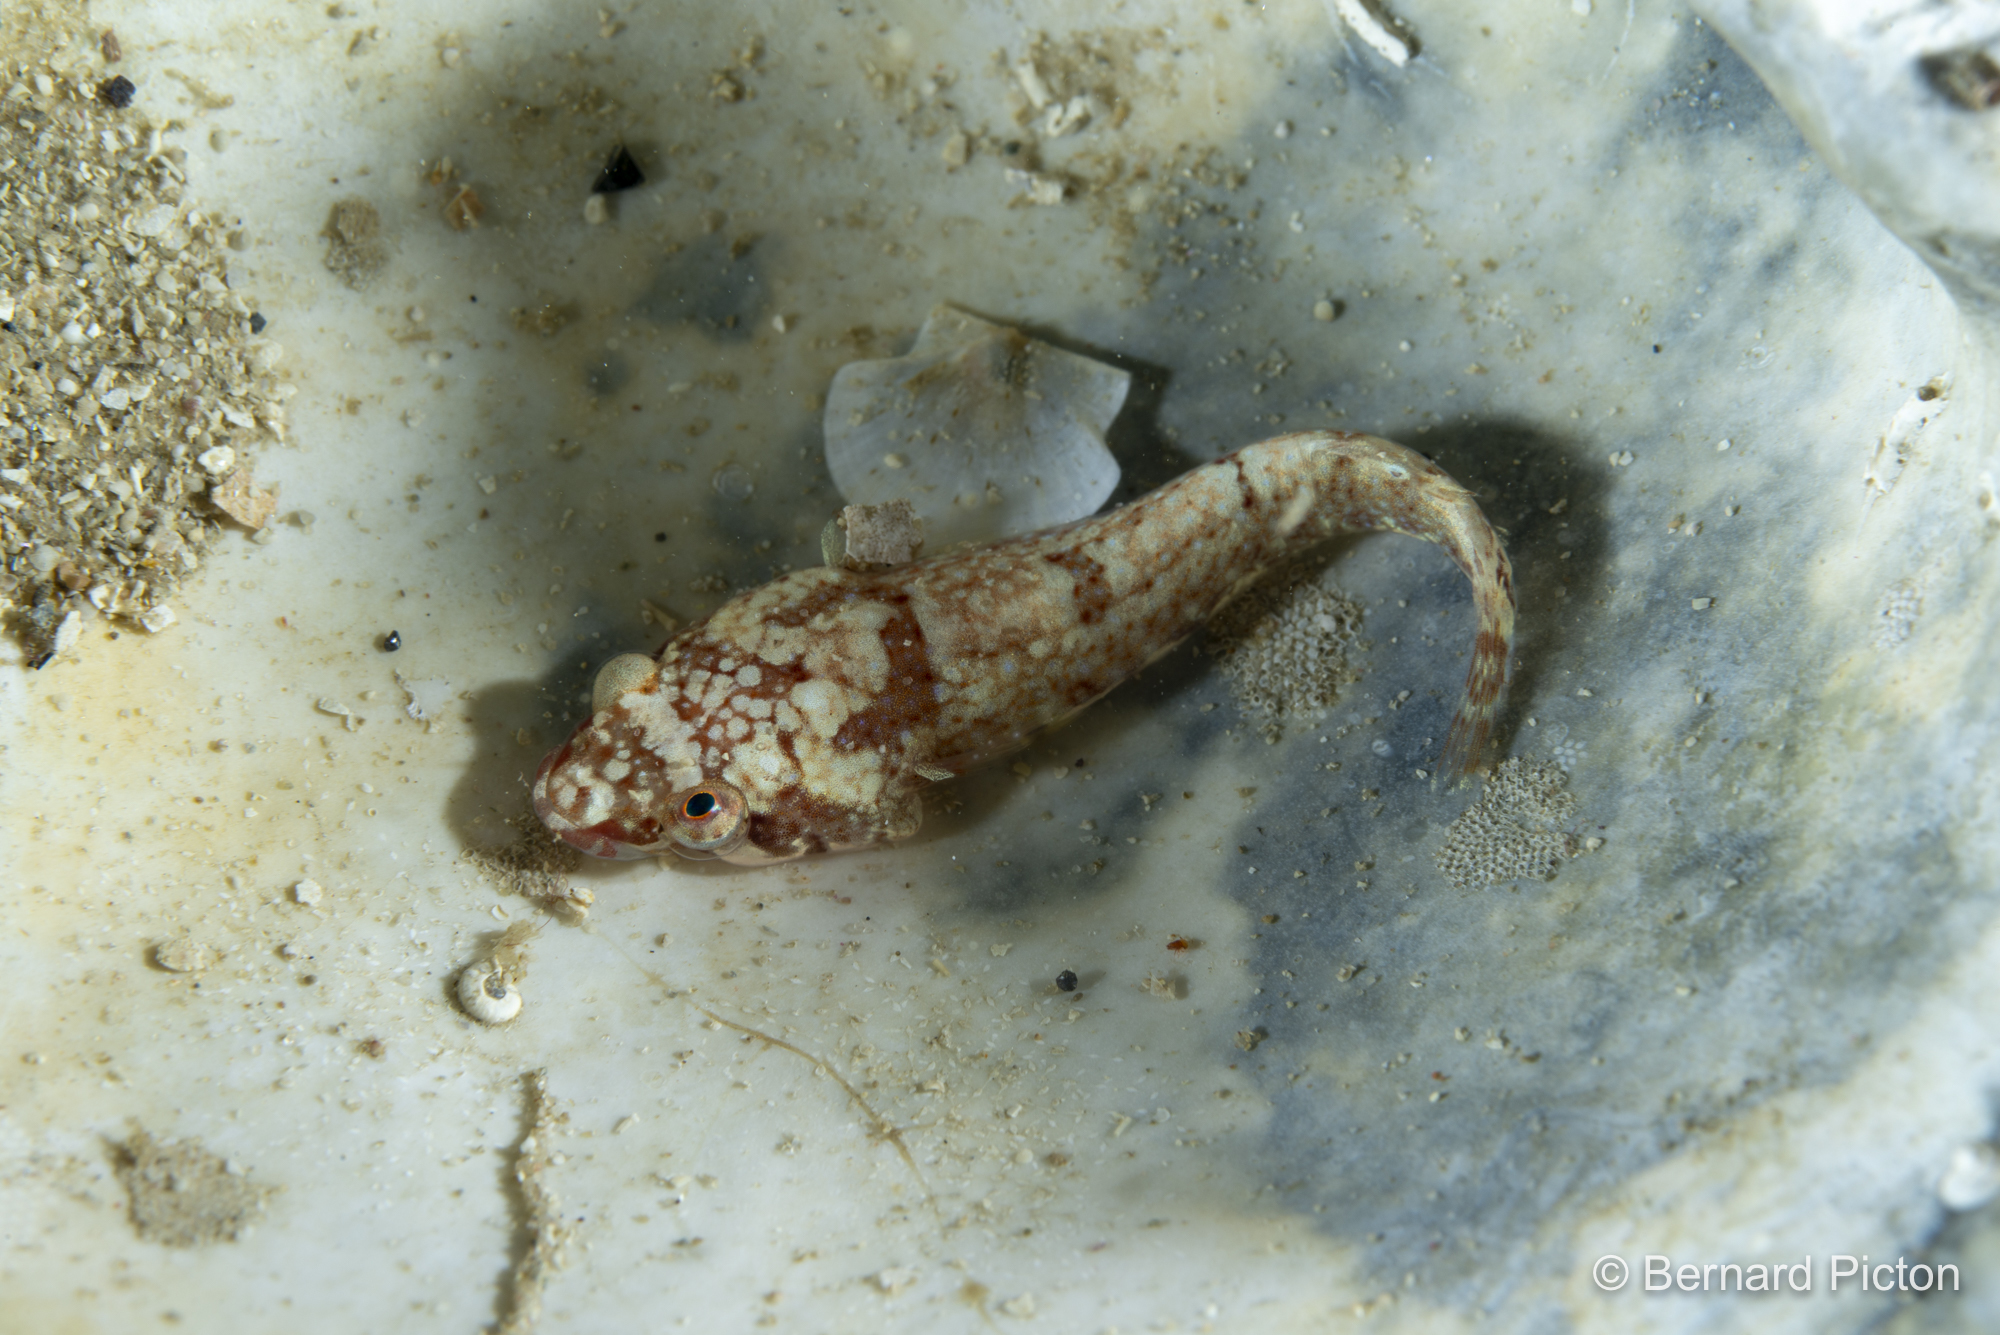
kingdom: Animalia
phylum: Chordata
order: Gobiesociformes
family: Gobiesocidae
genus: Diplecogaster
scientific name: Diplecogaster bimaculata
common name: Two-spotted clingfish
